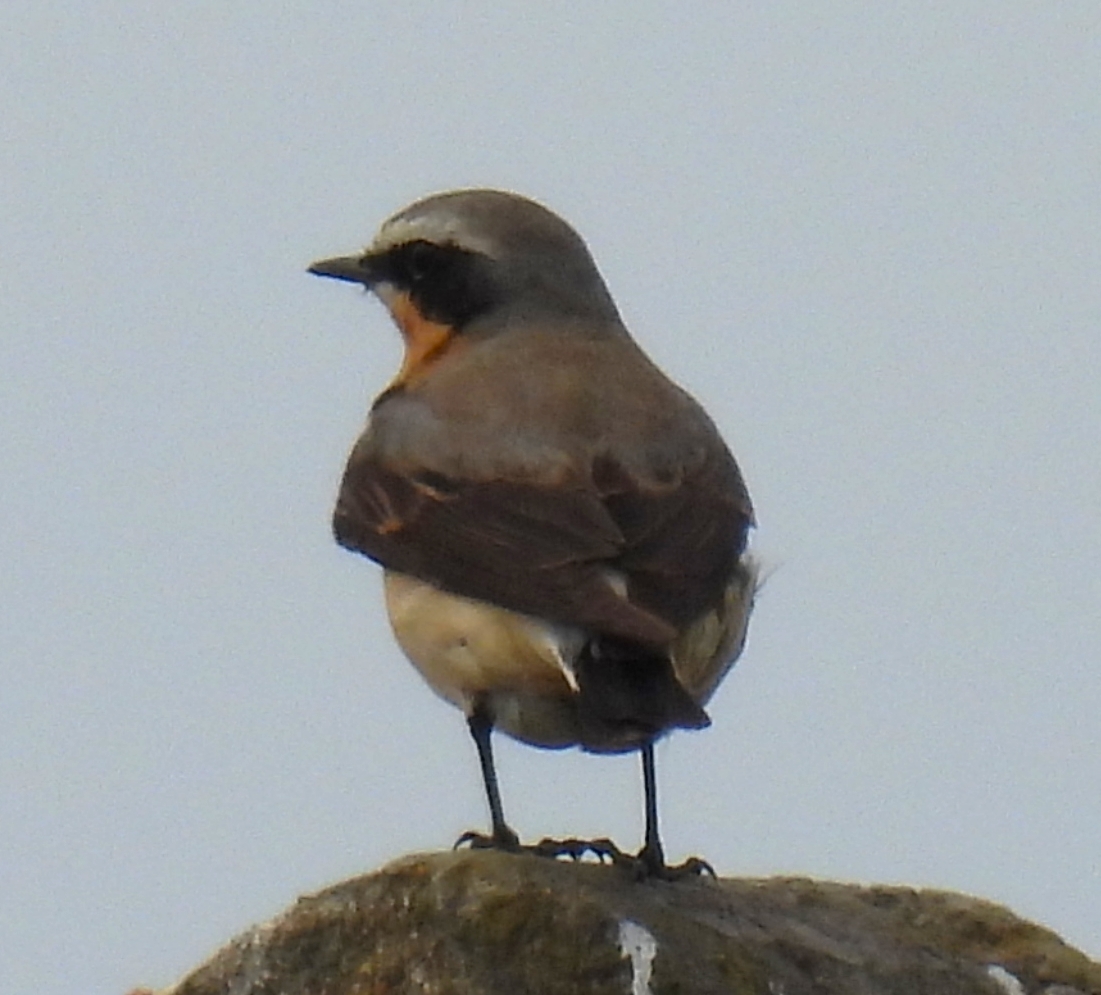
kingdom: Animalia
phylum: Chordata
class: Aves
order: Passeriformes
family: Muscicapidae
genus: Oenanthe
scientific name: Oenanthe oenanthe
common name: Northern wheatear
